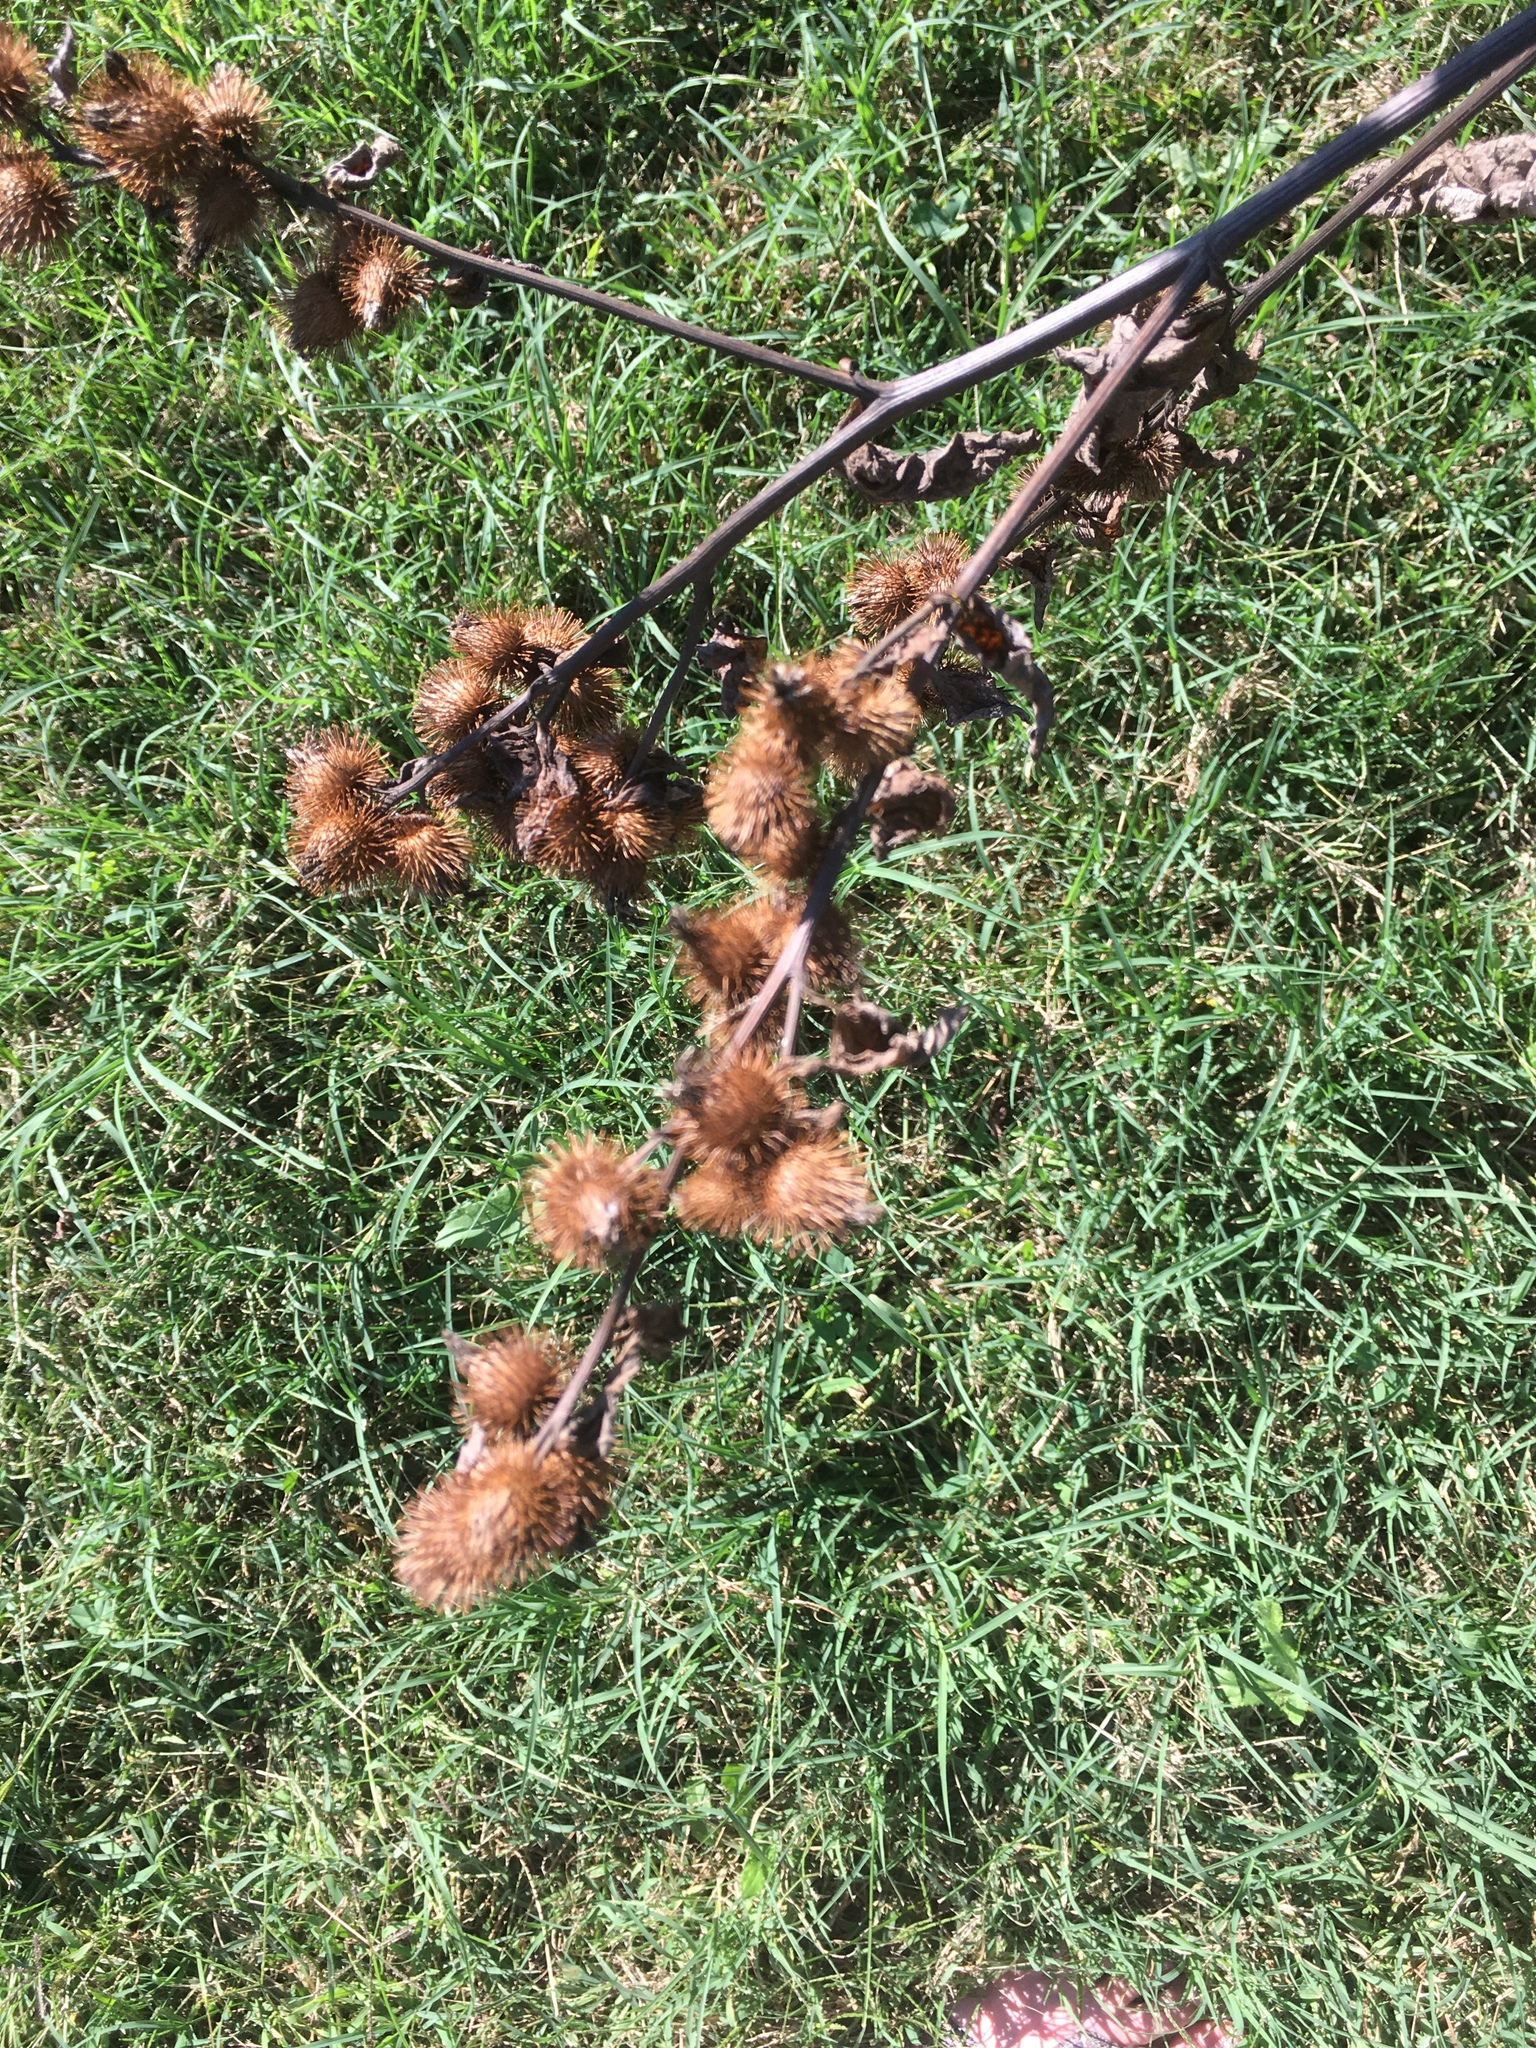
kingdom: Plantae
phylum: Tracheophyta
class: Magnoliopsida
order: Asterales
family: Asteraceae
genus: Arctium
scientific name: Arctium minus
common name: Lesser burdock
